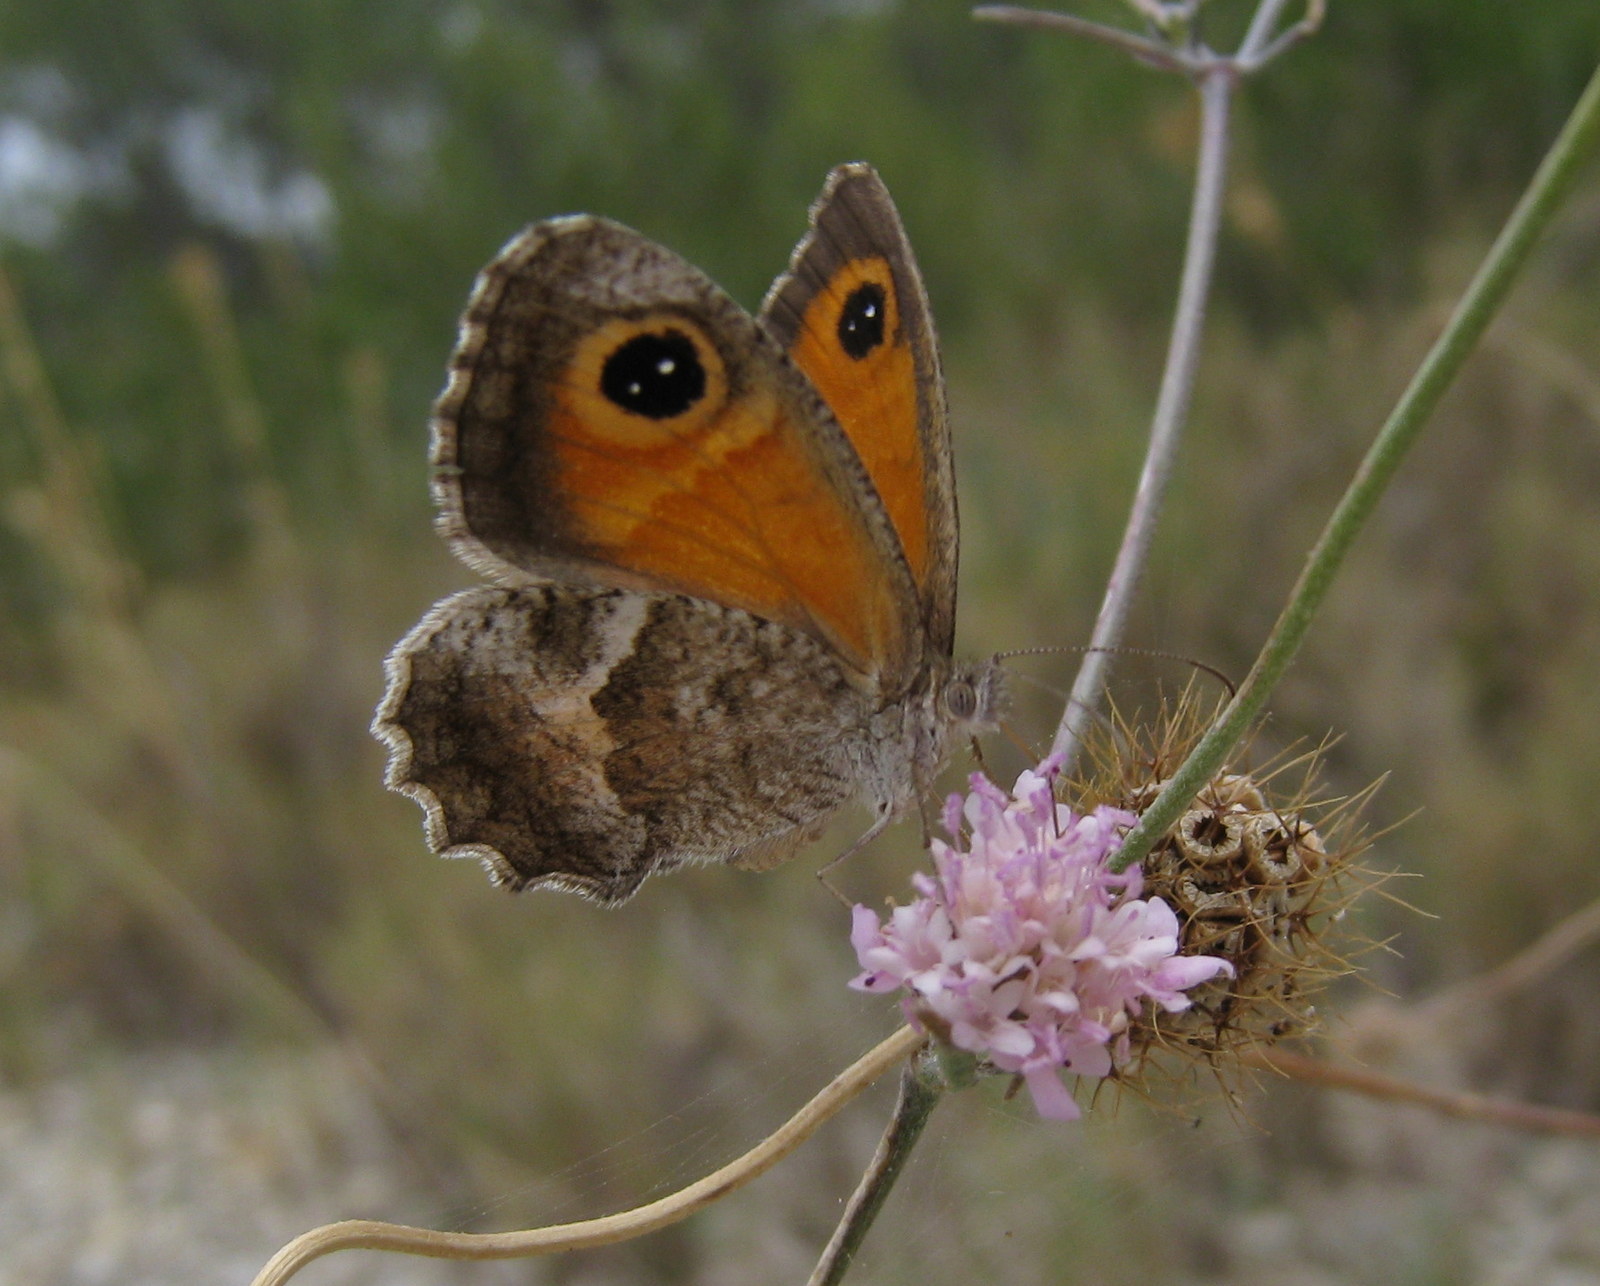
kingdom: Animalia
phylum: Arthropoda
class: Insecta
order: Lepidoptera
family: Nymphalidae
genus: Pyronia
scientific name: Pyronia cecilia
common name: Southern gatekeeper
